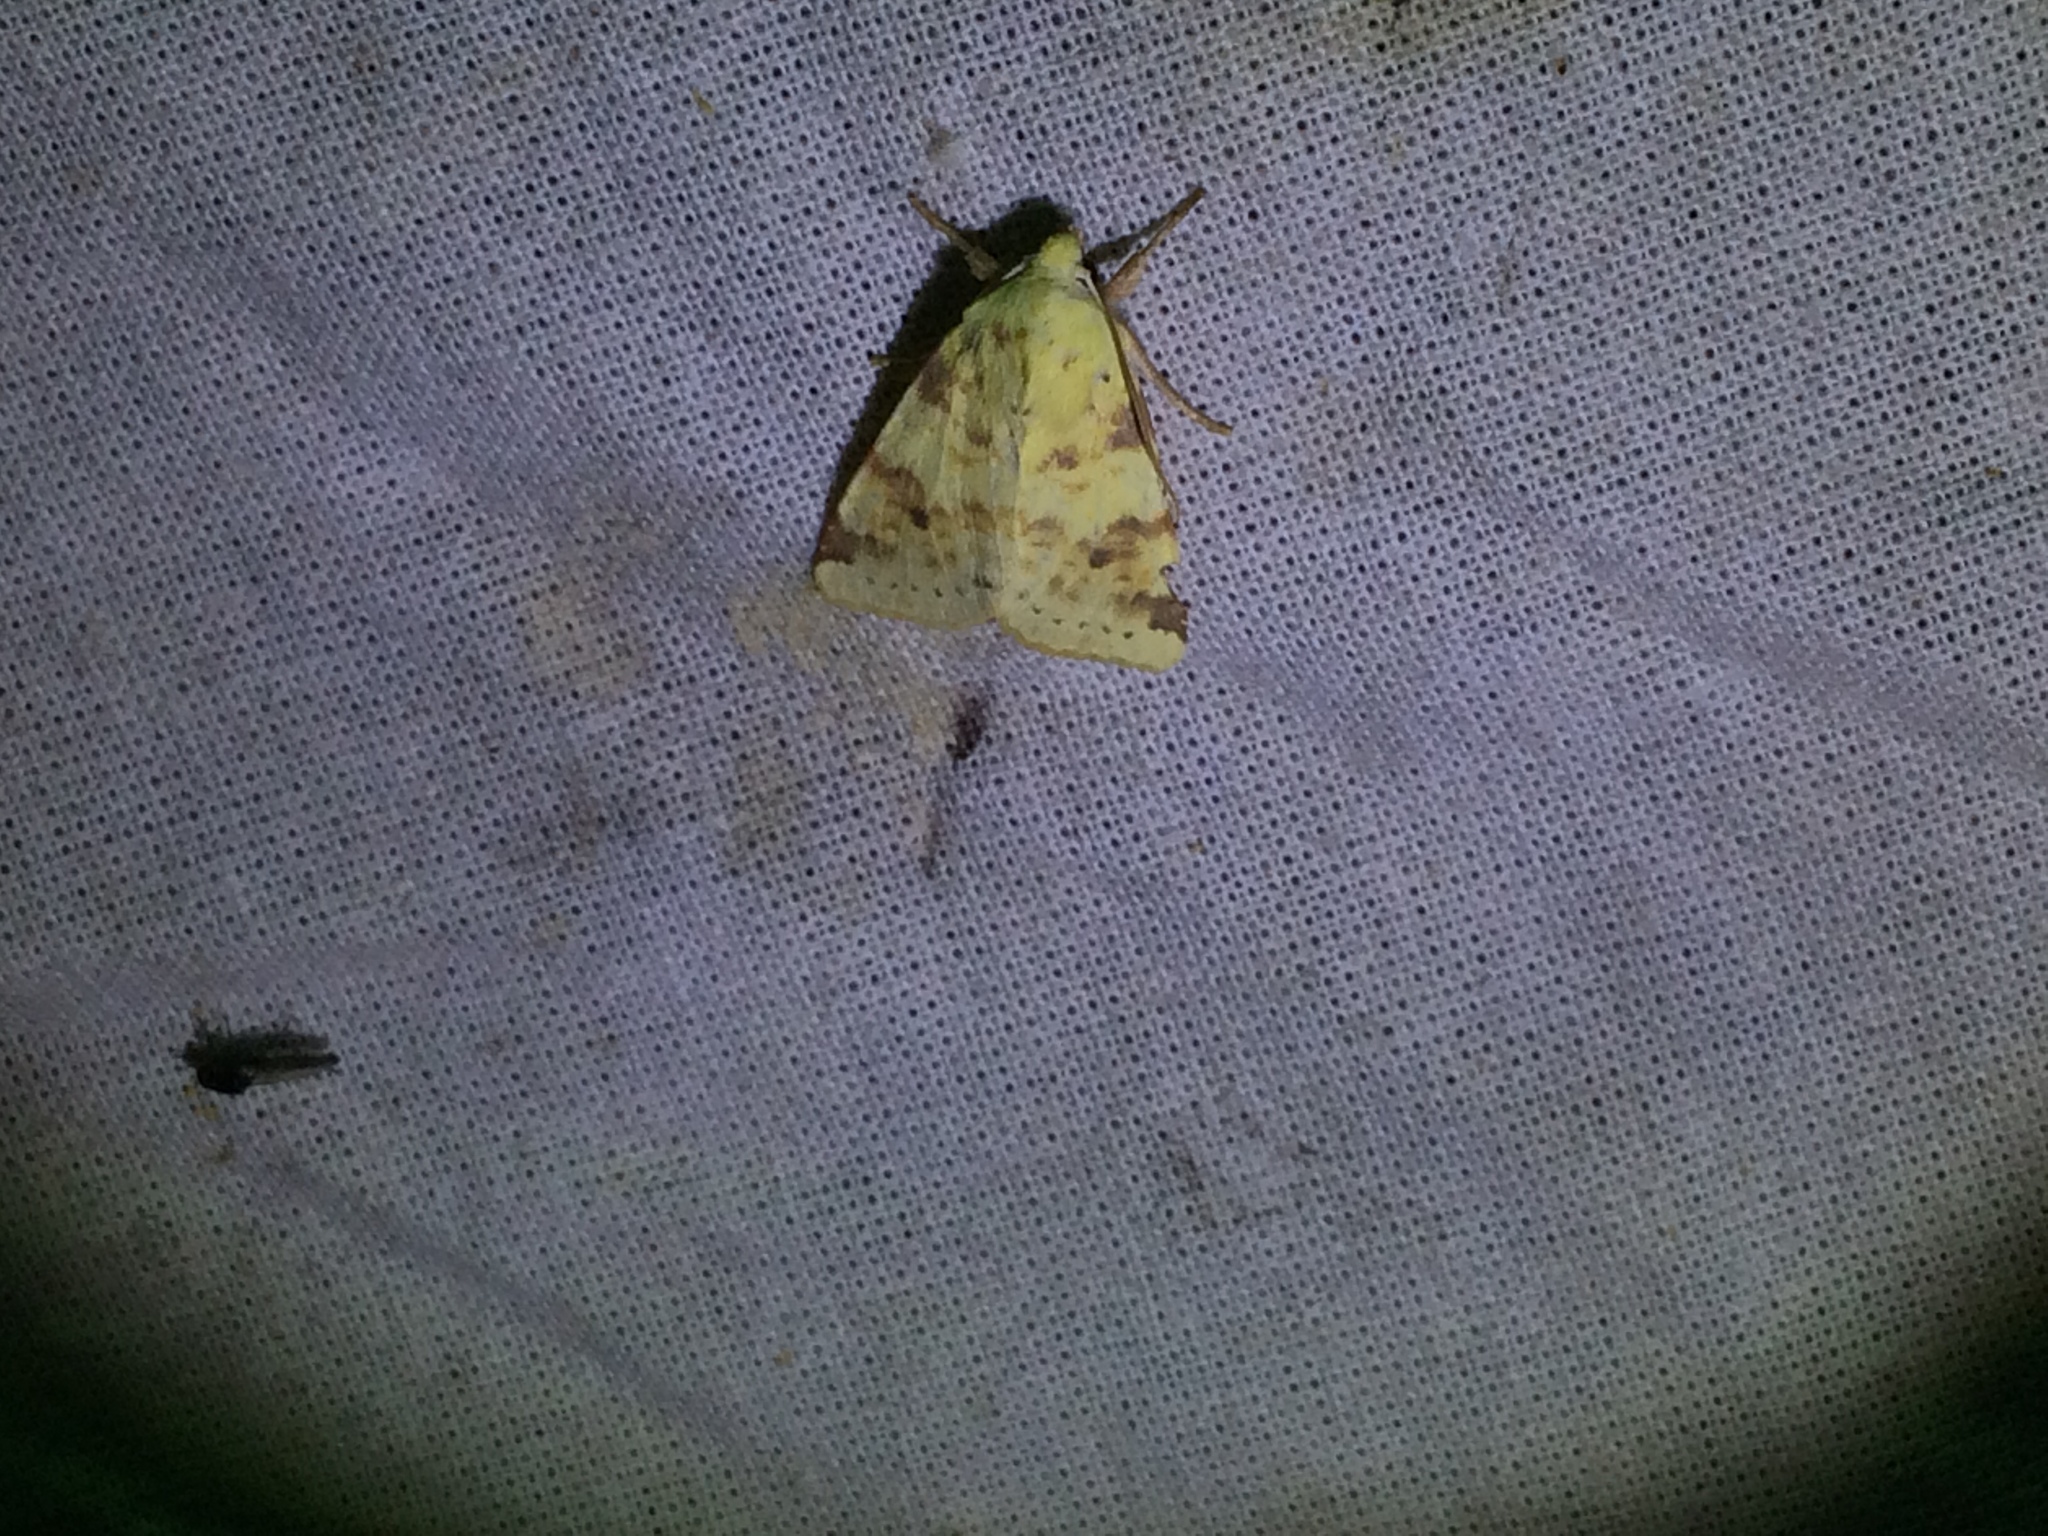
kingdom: Animalia
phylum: Arthropoda
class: Insecta
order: Lepidoptera
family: Noctuidae
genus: Xanthia
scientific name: Xanthia icteritia
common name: The sallow
